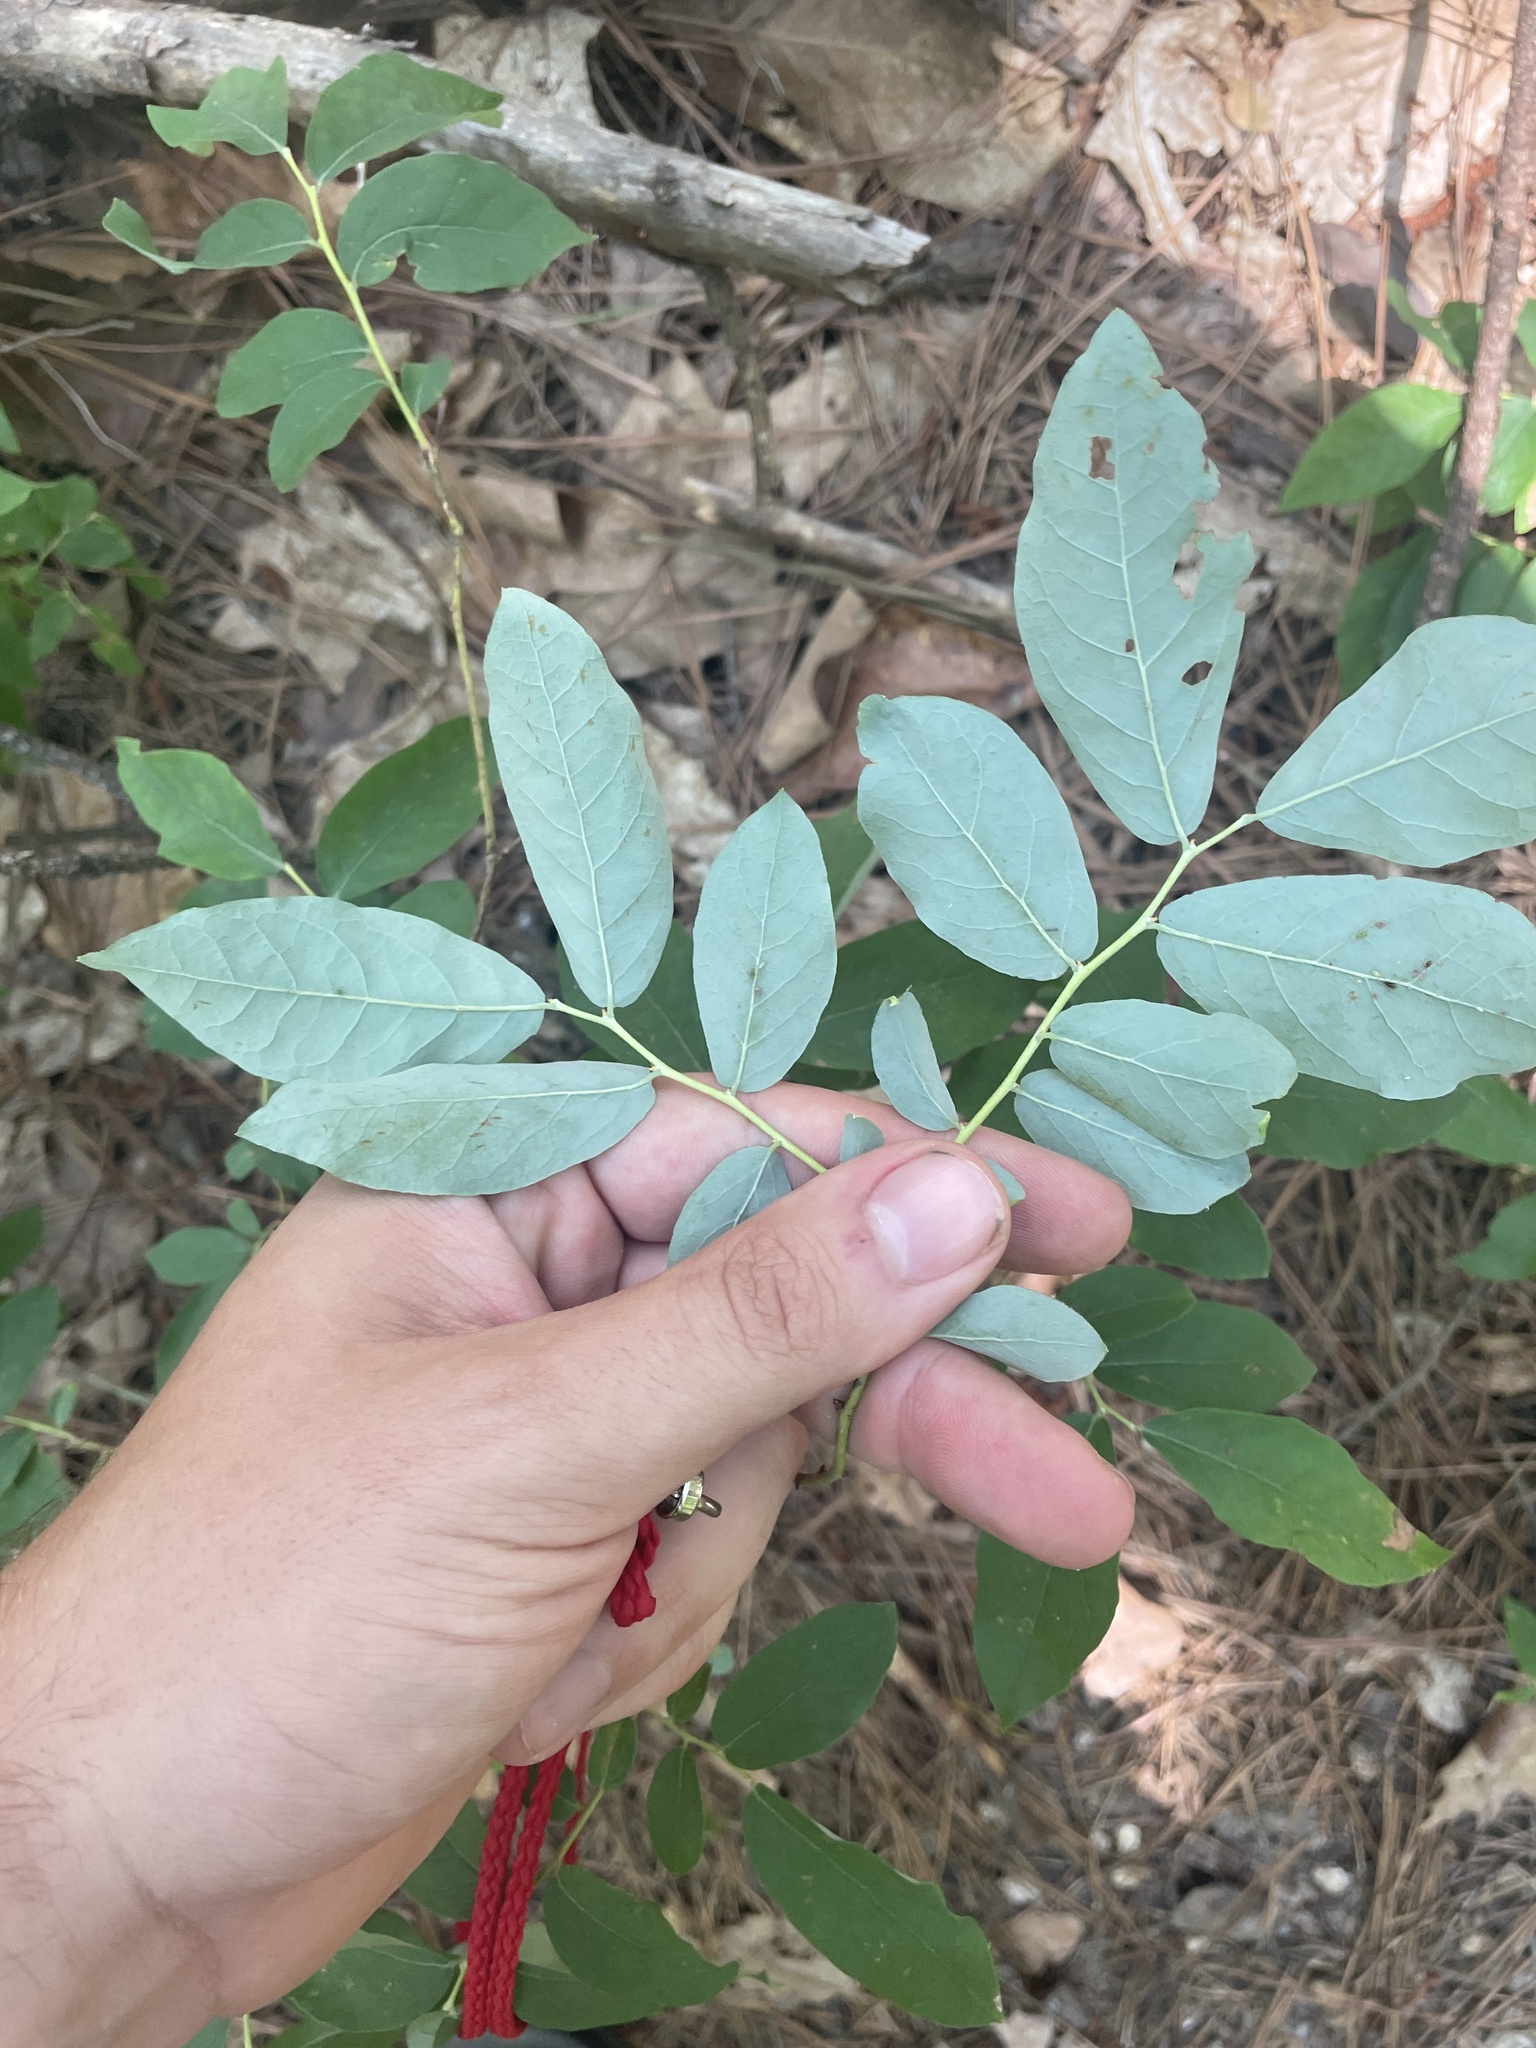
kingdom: Plantae
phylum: Tracheophyta
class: Magnoliopsida
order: Ericales
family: Ericaceae
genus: Vaccinium
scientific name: Vaccinium stamineum
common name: Deerberry
